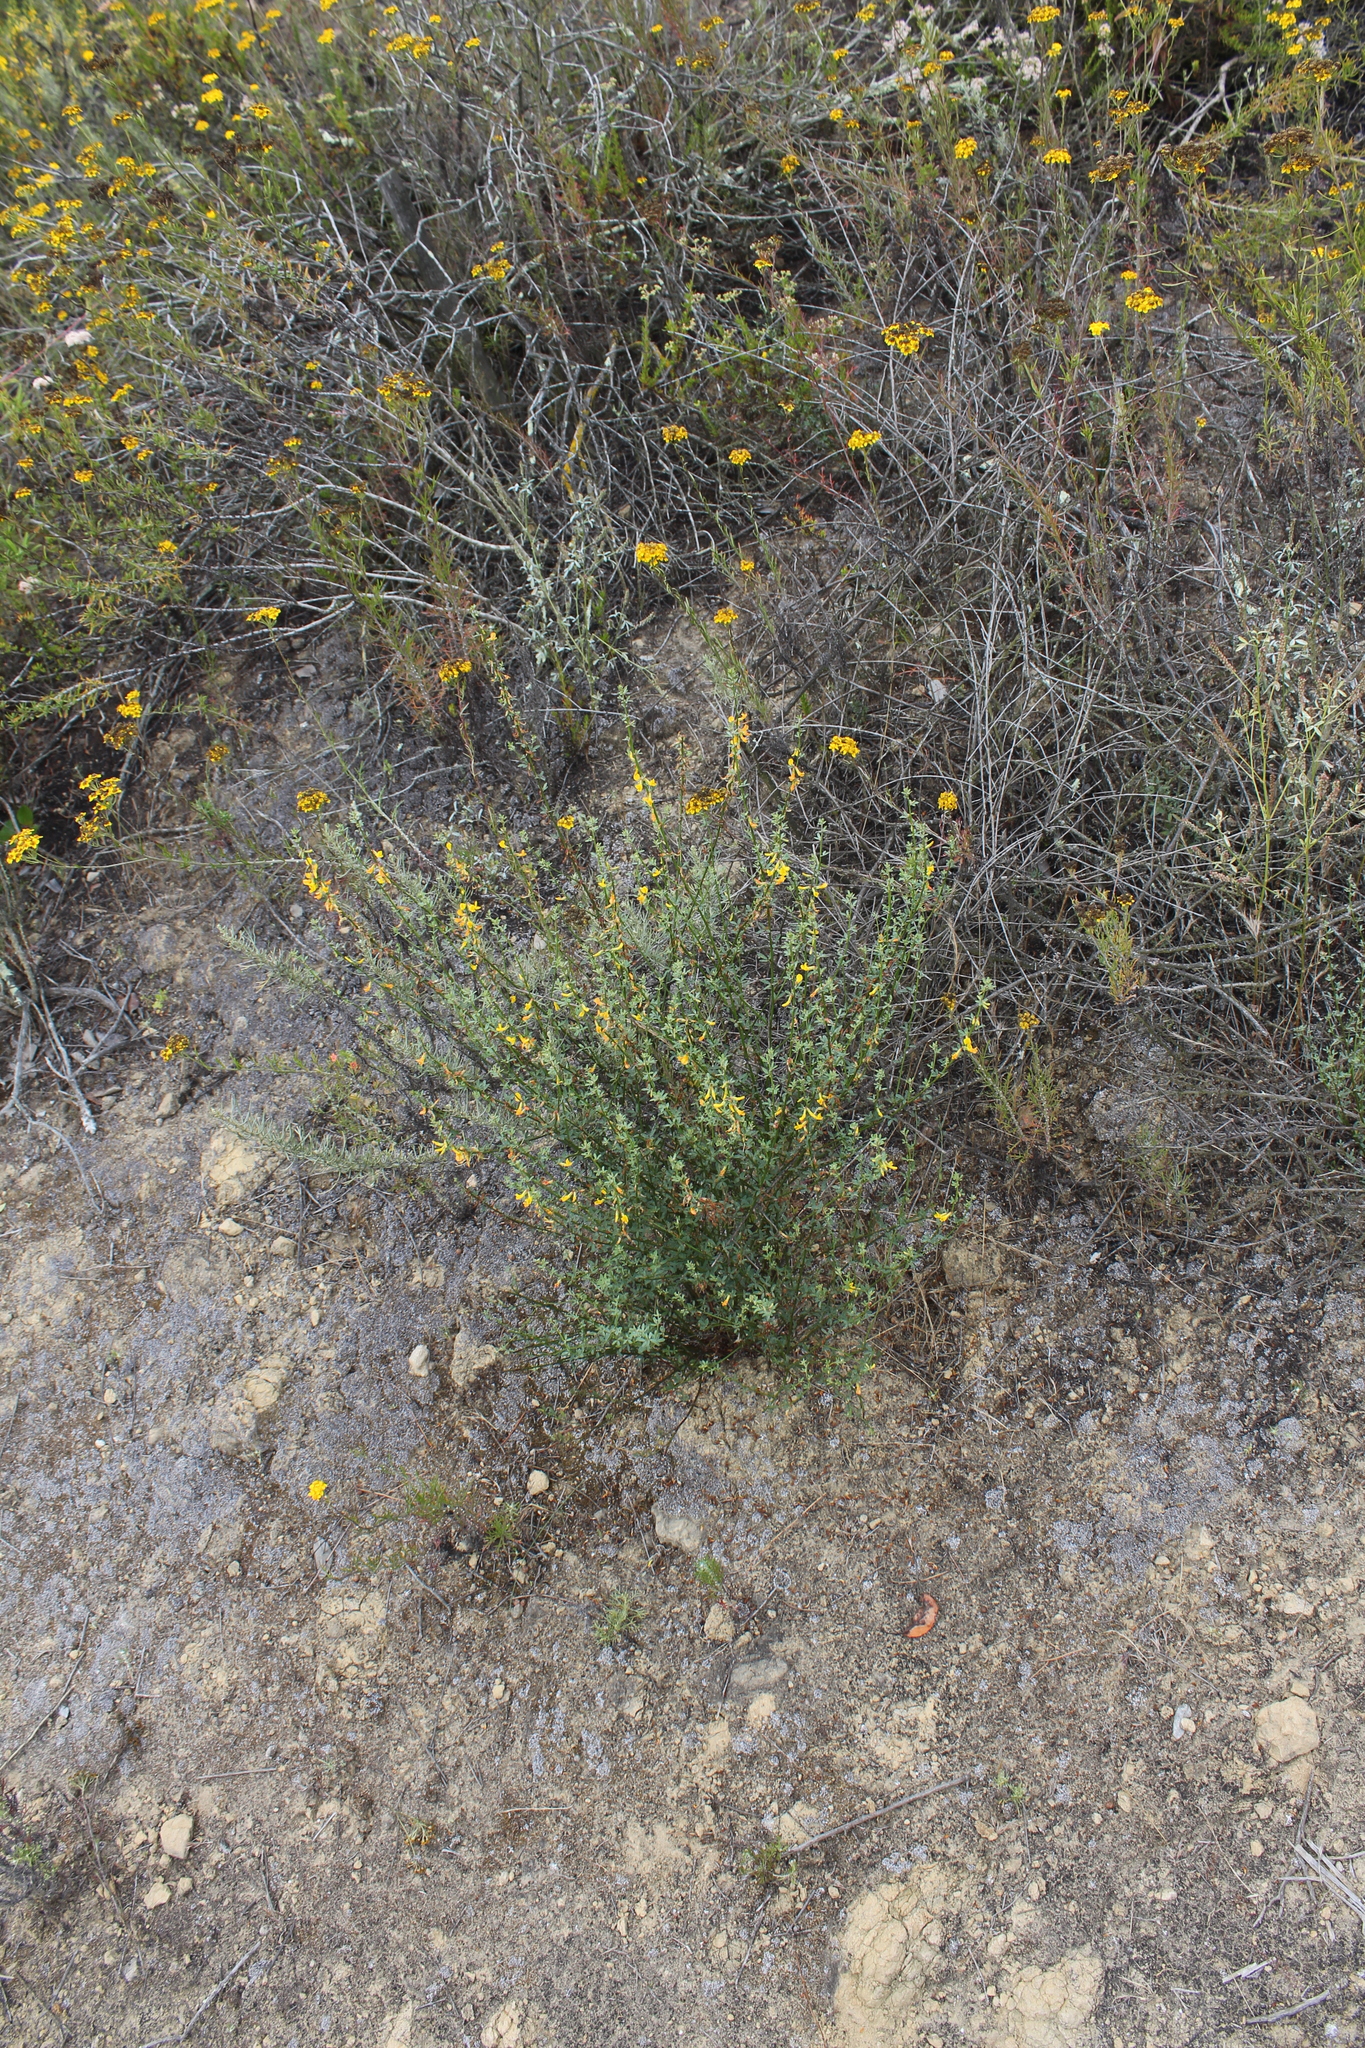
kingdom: Plantae
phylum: Tracheophyta
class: Magnoliopsida
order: Fabales
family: Fabaceae
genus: Acmispon
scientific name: Acmispon glaber
